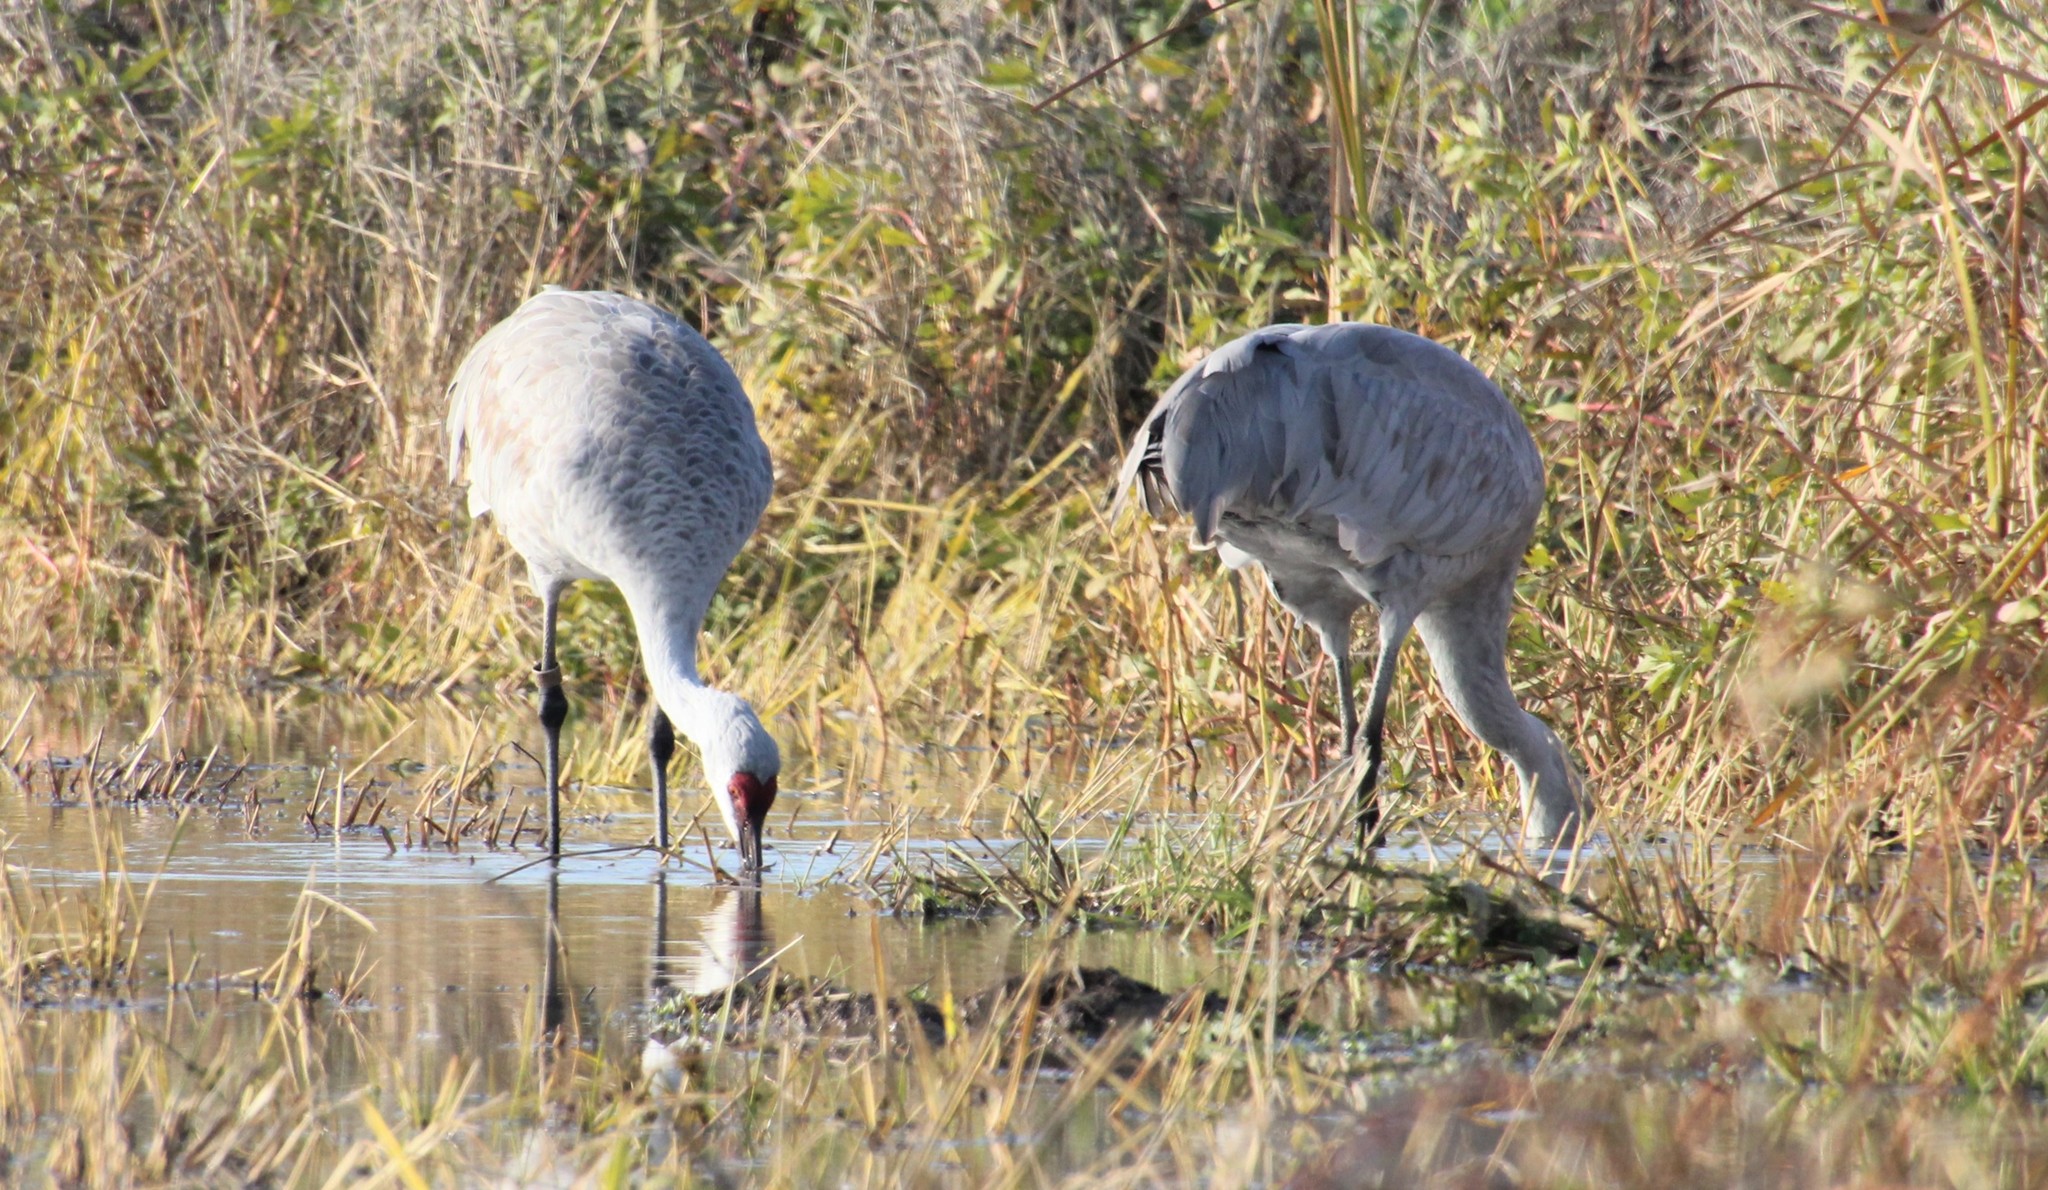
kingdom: Animalia
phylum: Chordata
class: Aves
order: Gruiformes
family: Gruidae
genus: Grus
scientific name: Grus canadensis
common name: Sandhill crane
